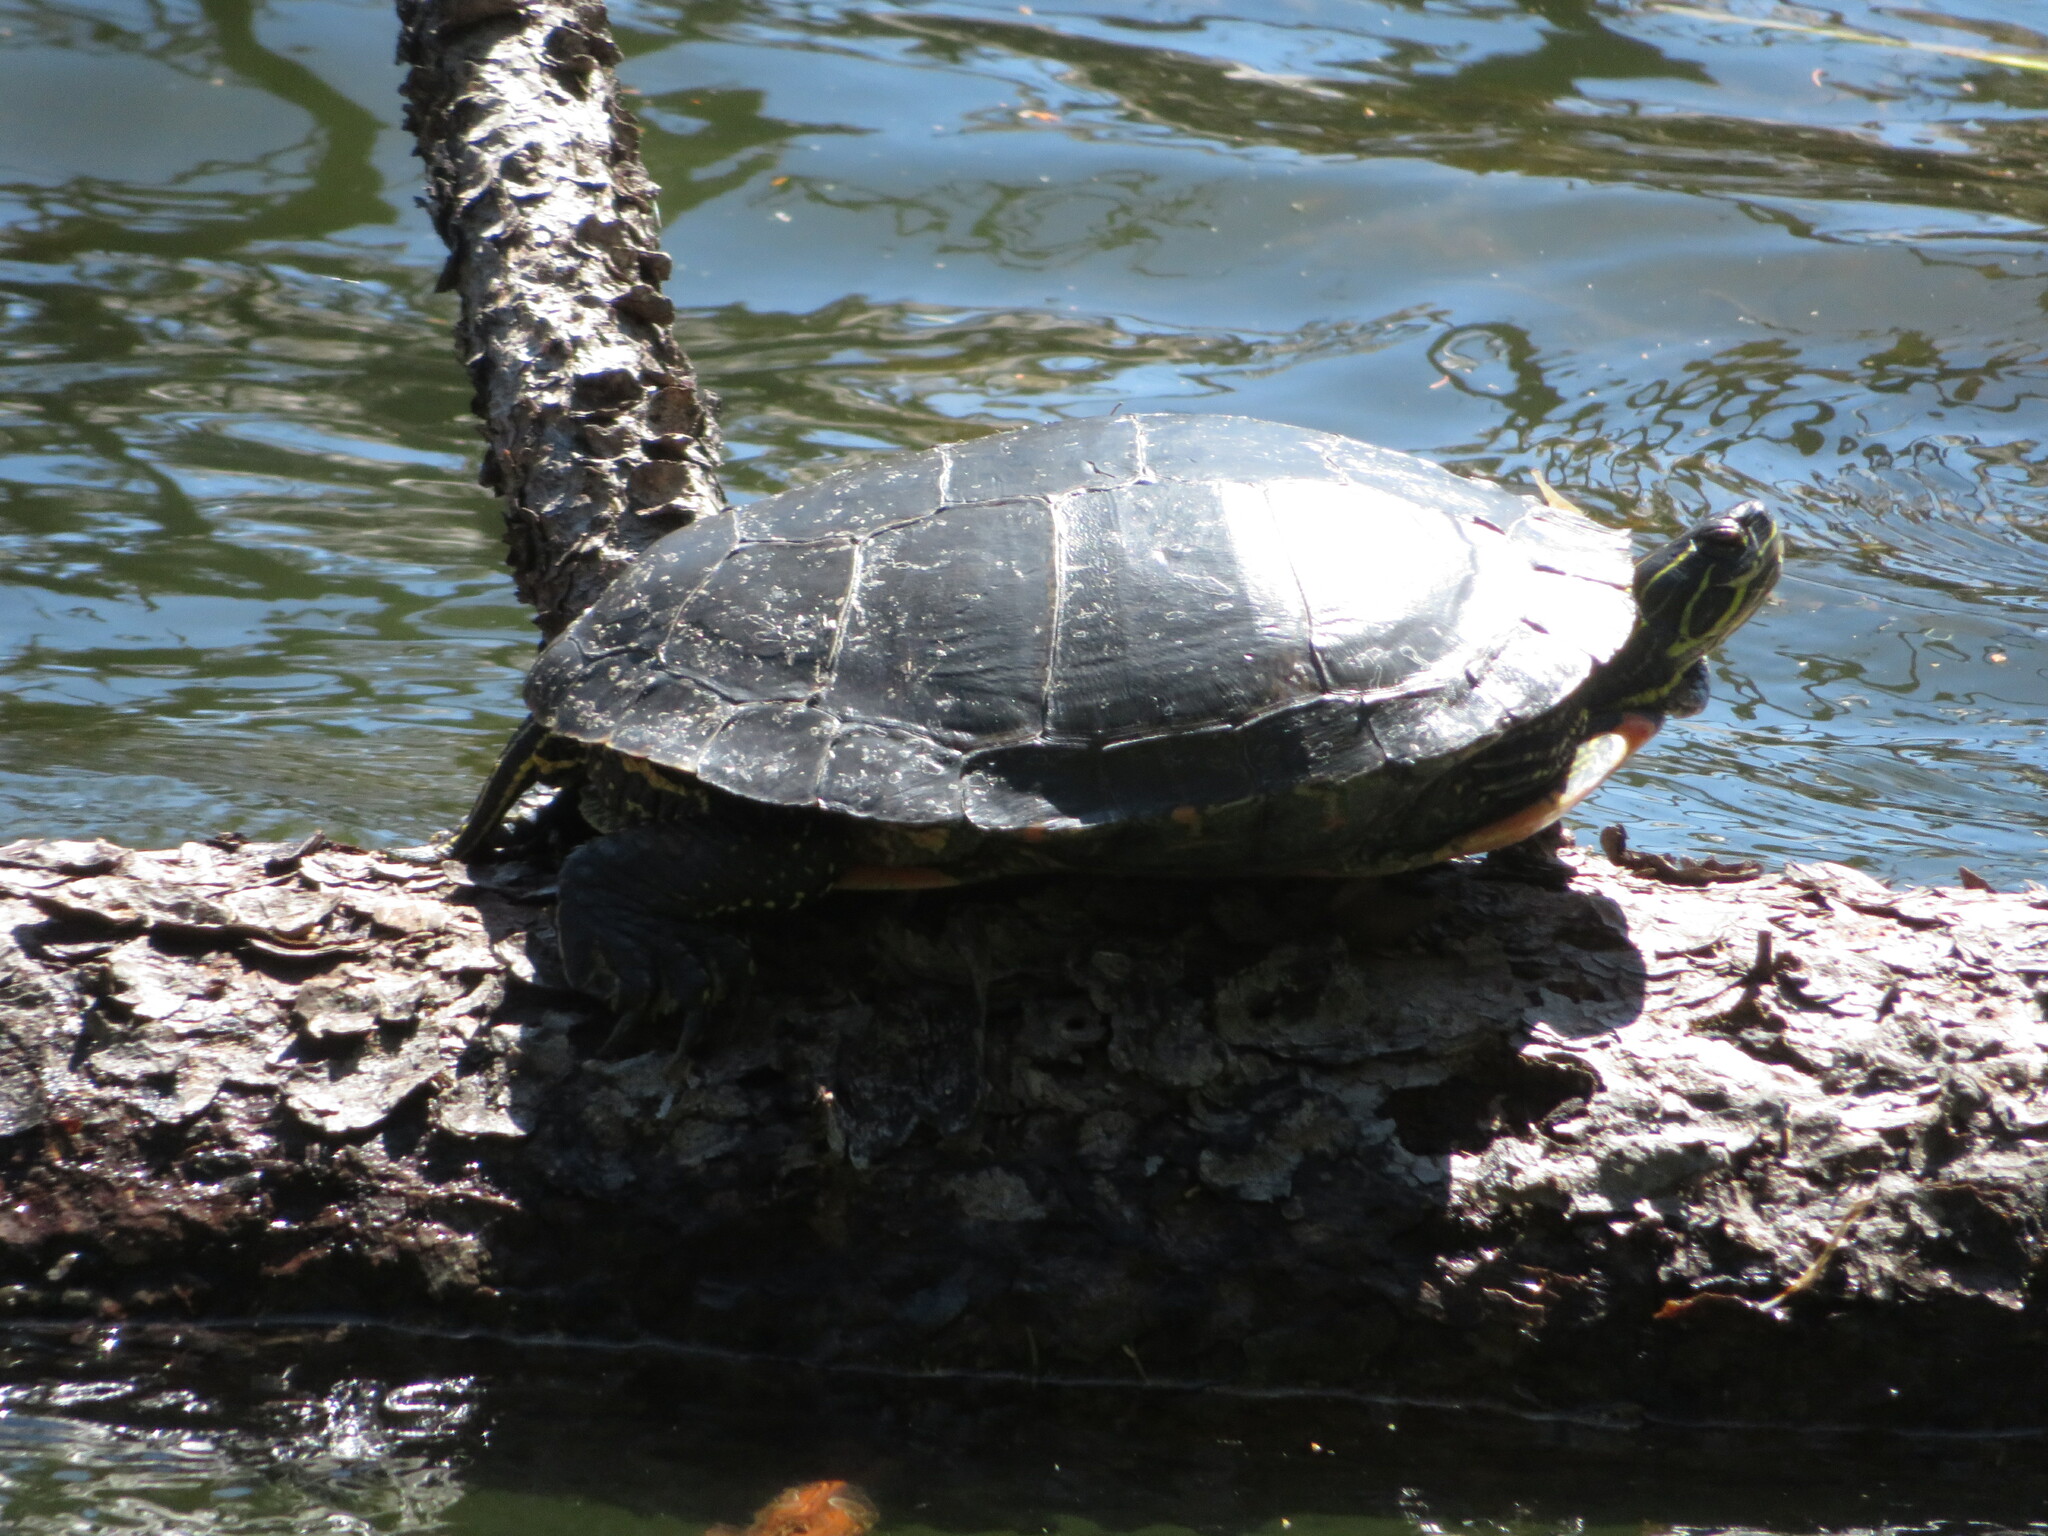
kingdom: Animalia
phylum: Chordata
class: Testudines
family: Emydidae
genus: Chrysemys
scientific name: Chrysemys picta
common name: Painted turtle
